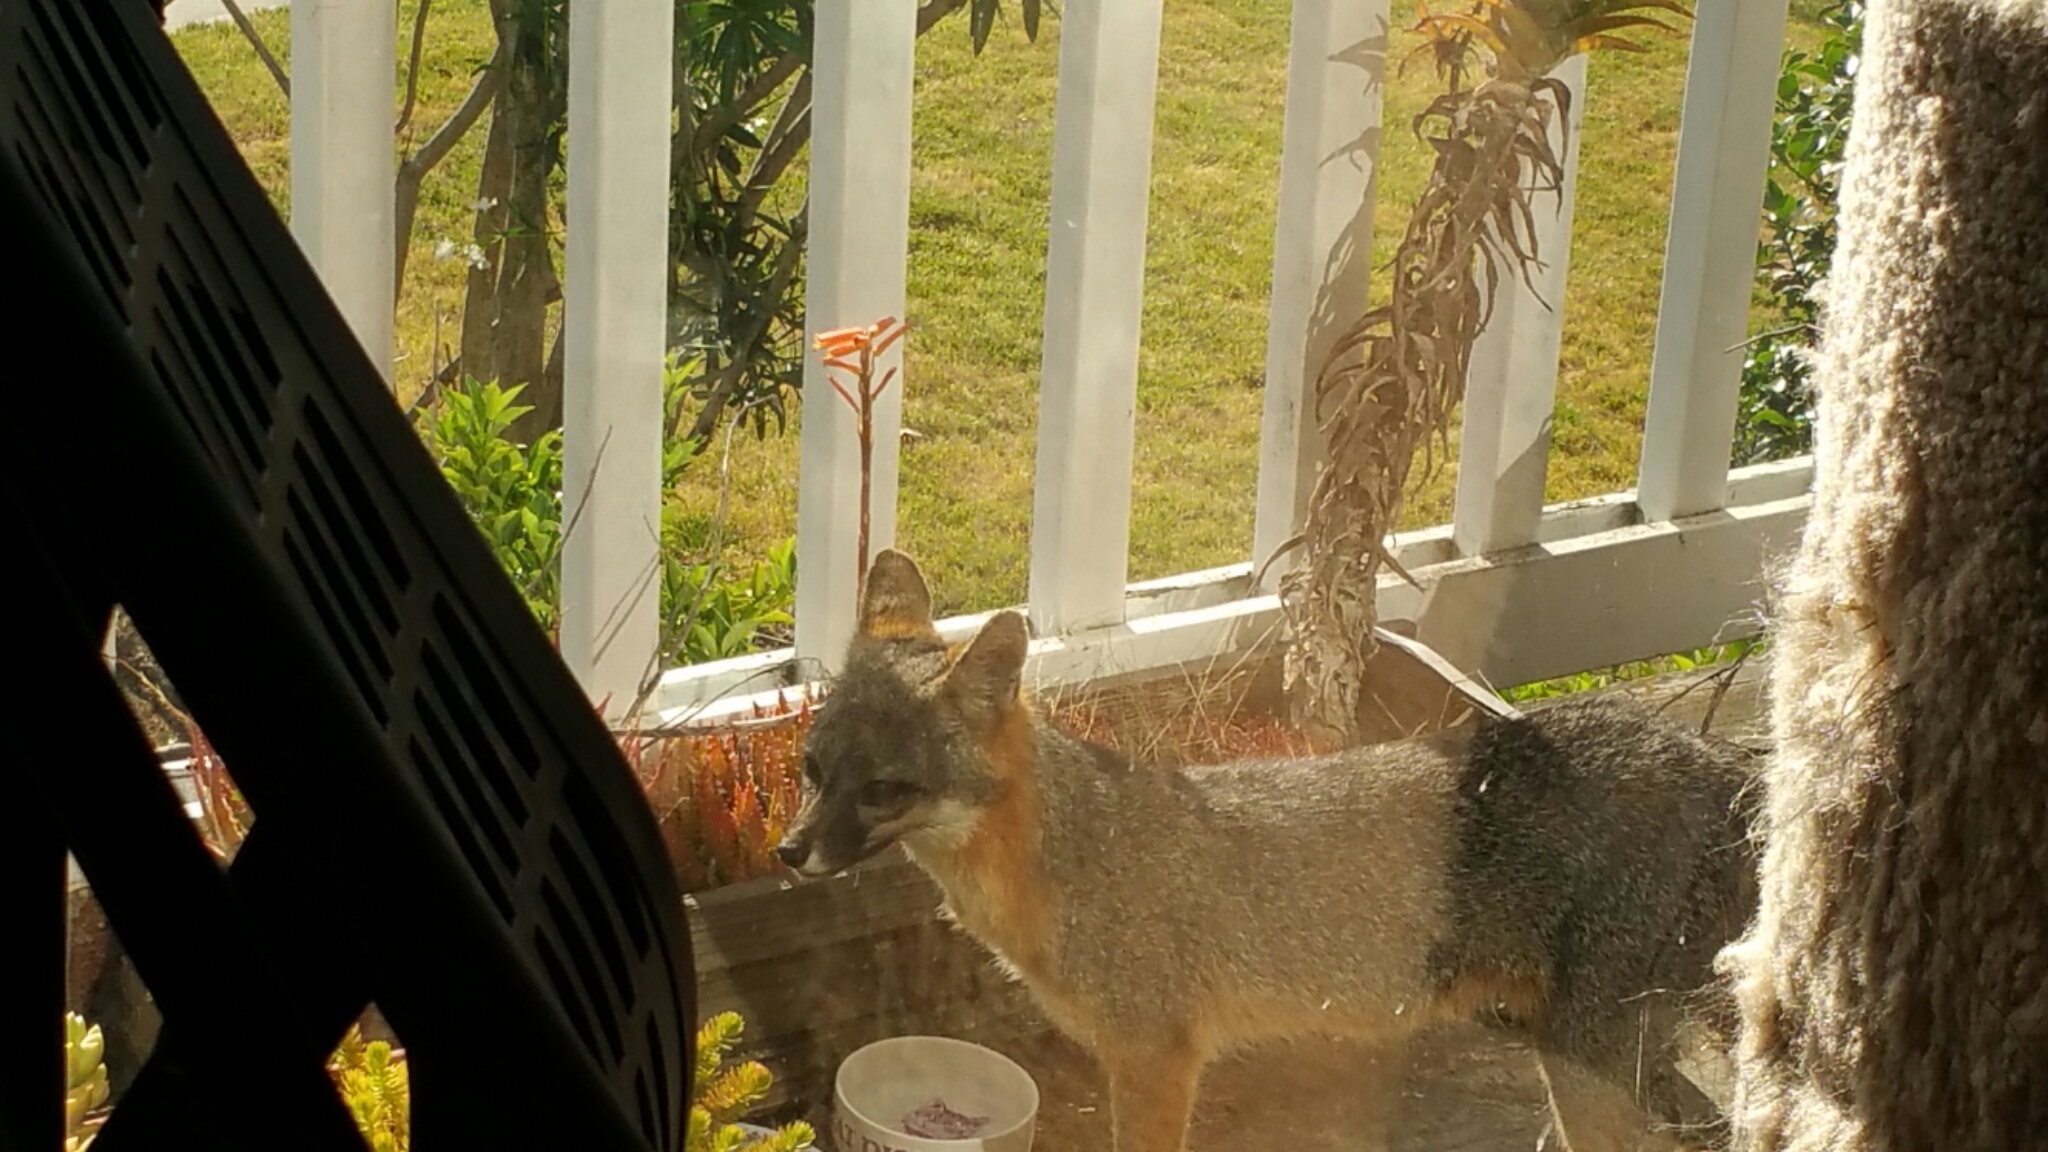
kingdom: Animalia
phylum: Chordata
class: Mammalia
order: Carnivora
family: Canidae
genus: Urocyon
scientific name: Urocyon cinereoargenteus
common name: Gray fox
